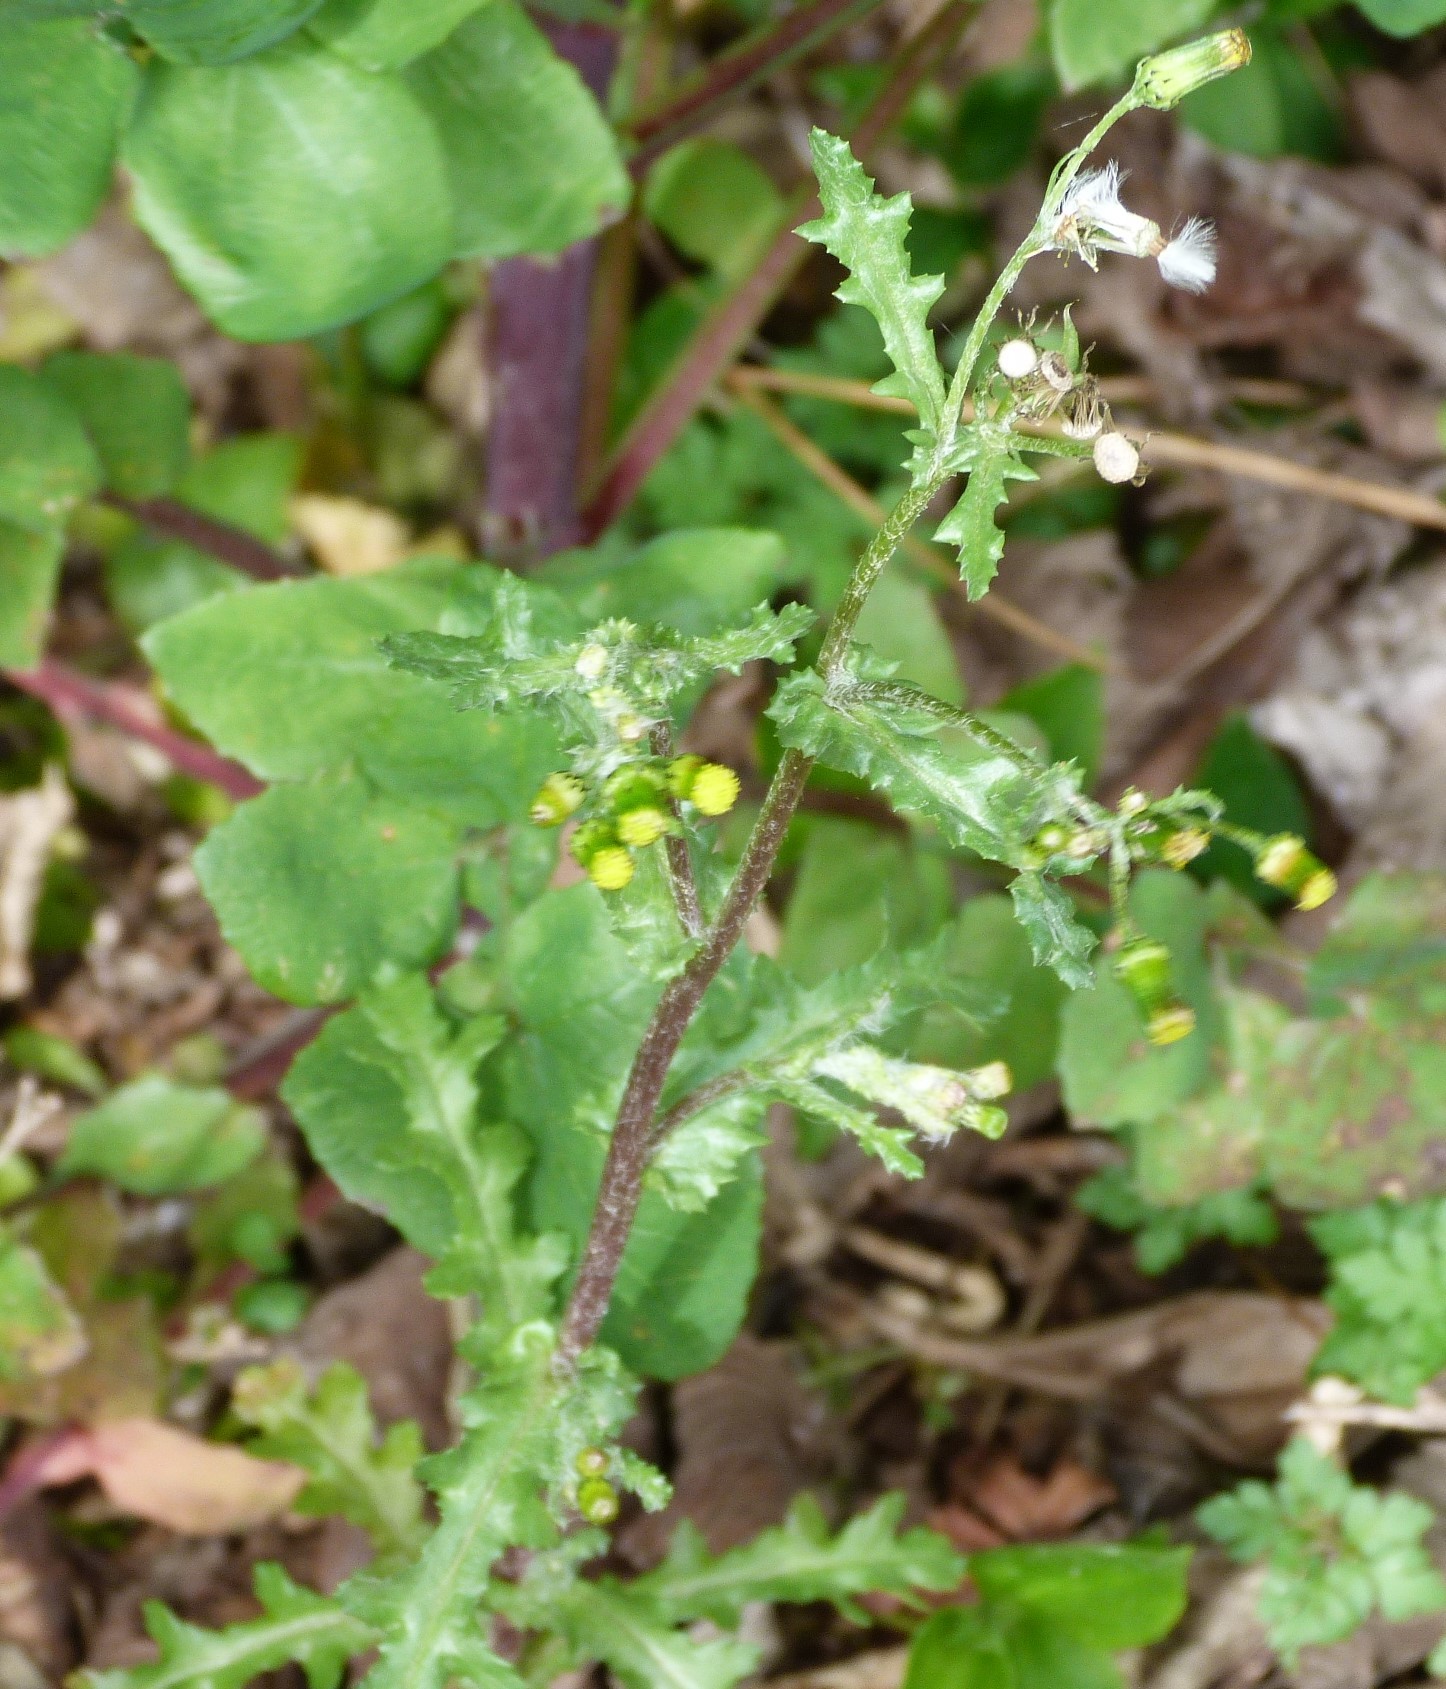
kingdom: Plantae
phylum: Tracheophyta
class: Magnoliopsida
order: Asterales
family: Asteraceae
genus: Senecio
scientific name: Senecio vulgaris
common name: Old-man-in-the-spring
